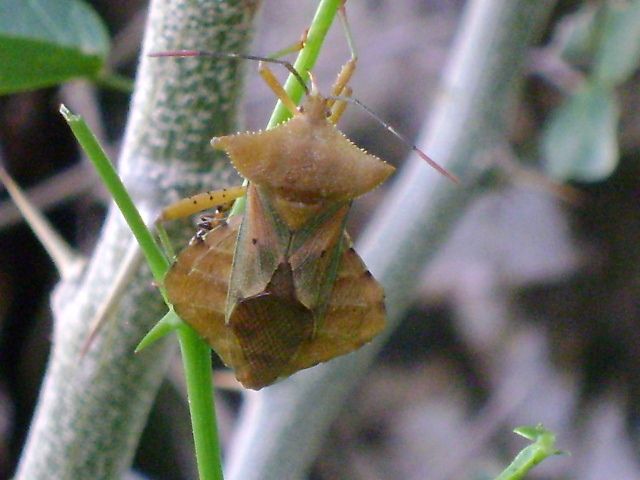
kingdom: Animalia
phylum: Arthropoda
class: Insecta
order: Hemiptera
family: Coreidae
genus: Mozena
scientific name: Mozena lutea
